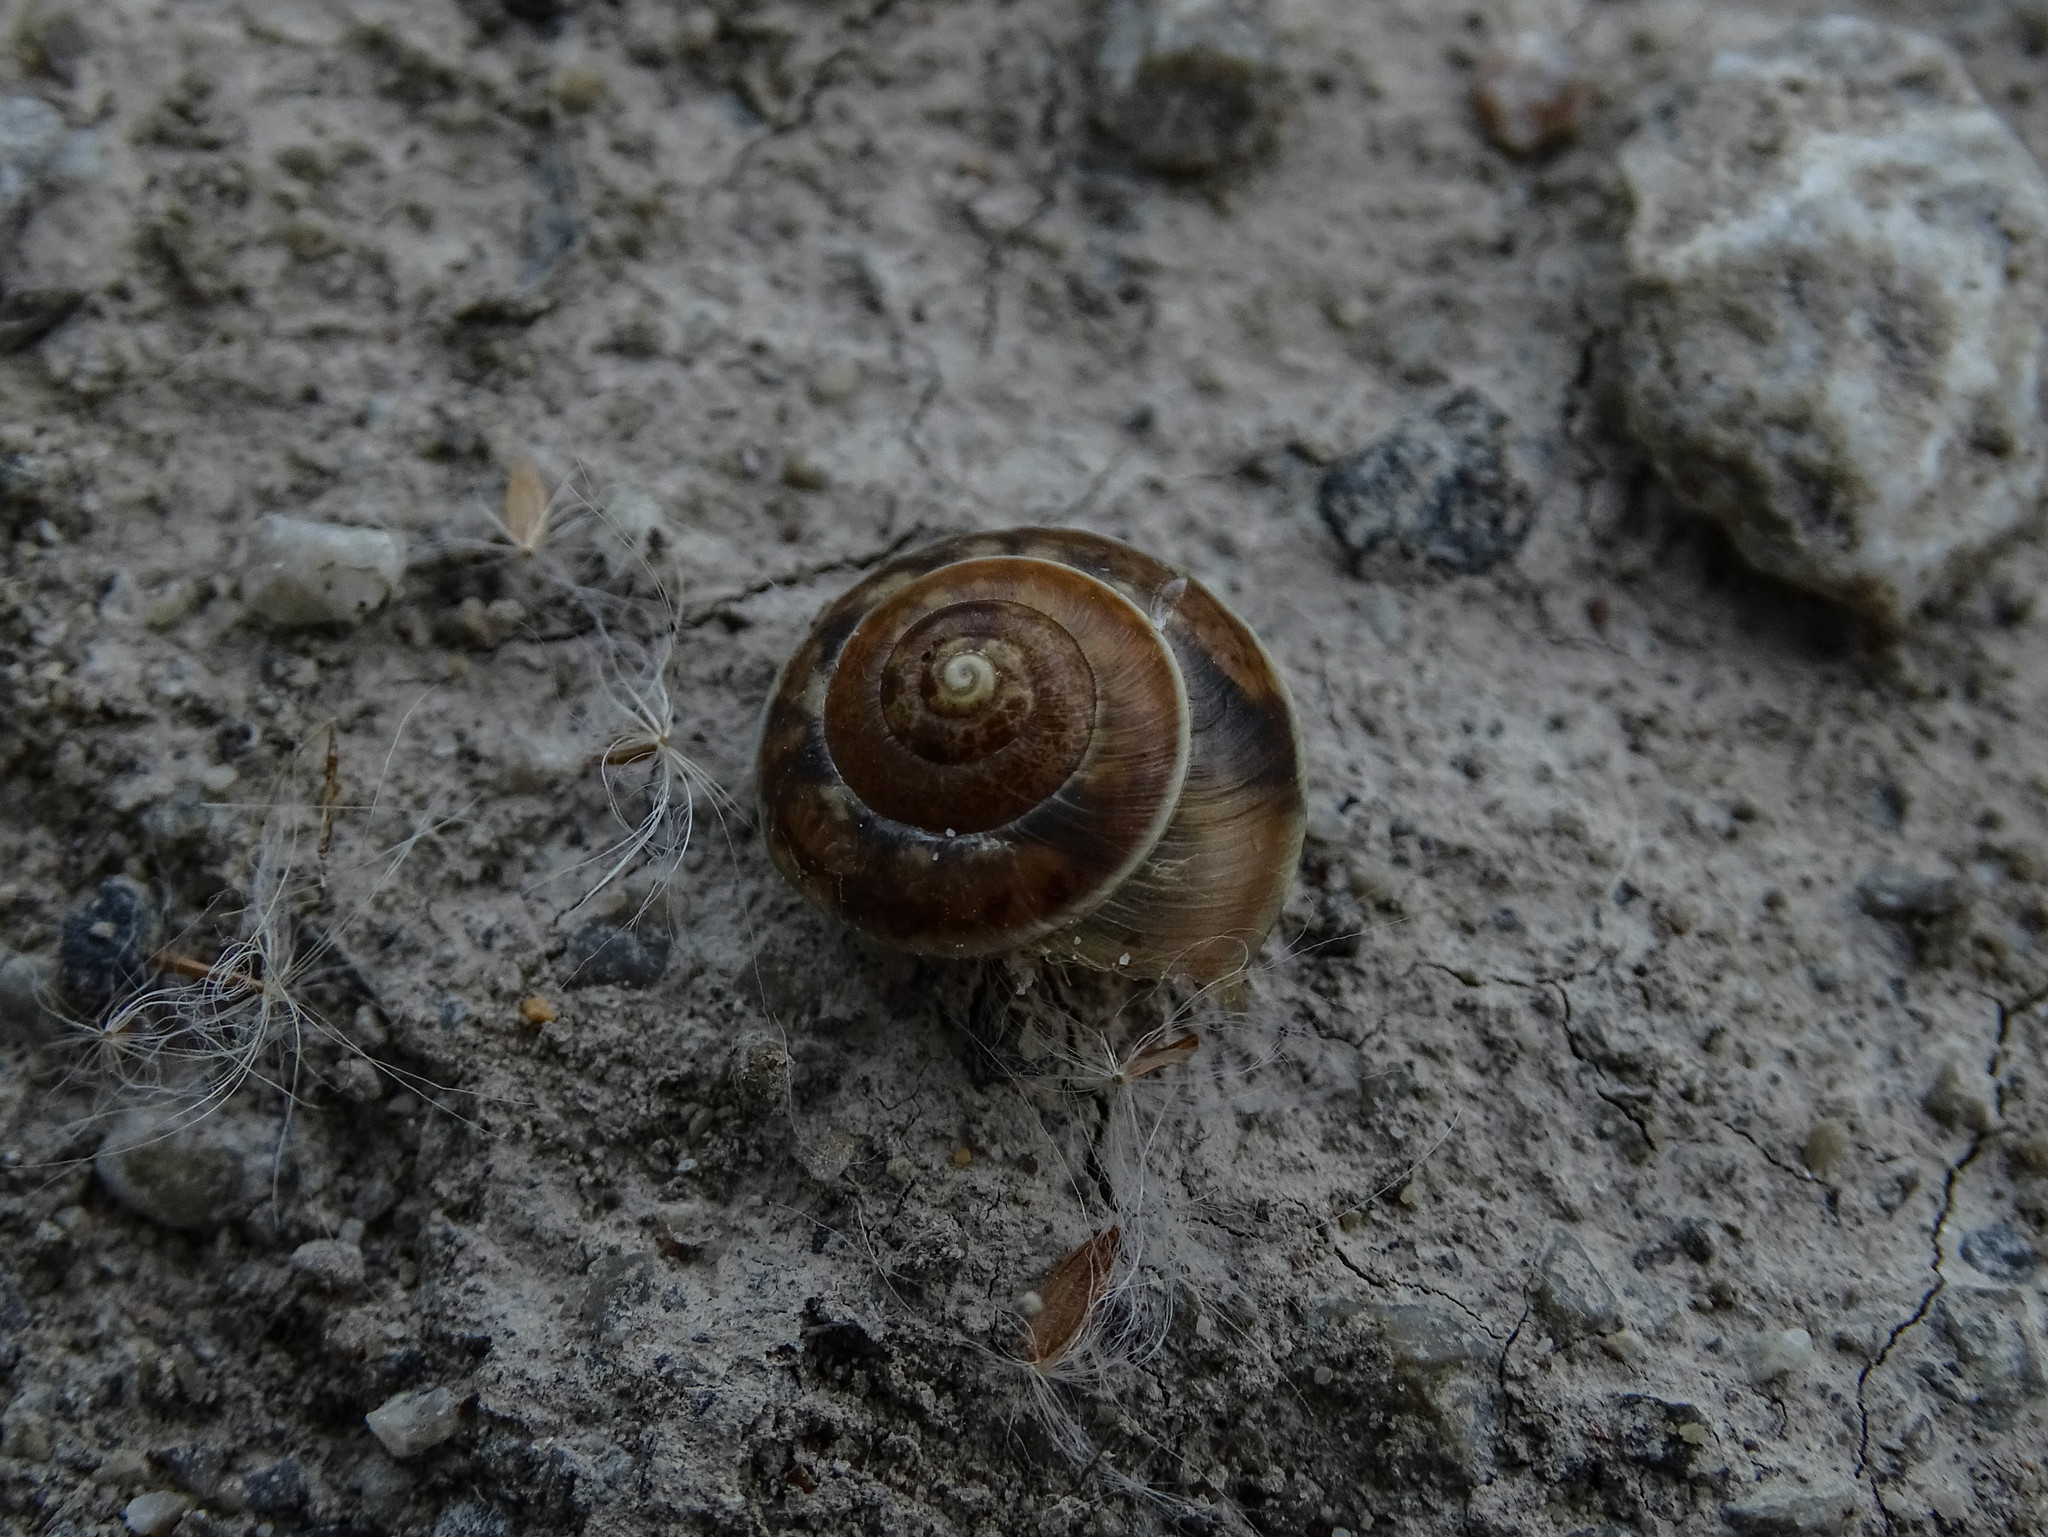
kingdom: Animalia
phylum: Mollusca
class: Gastropoda
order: Stylommatophora
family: Hygromiidae
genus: Hygromia
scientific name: Hygromia cinctella
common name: Girdled snail
